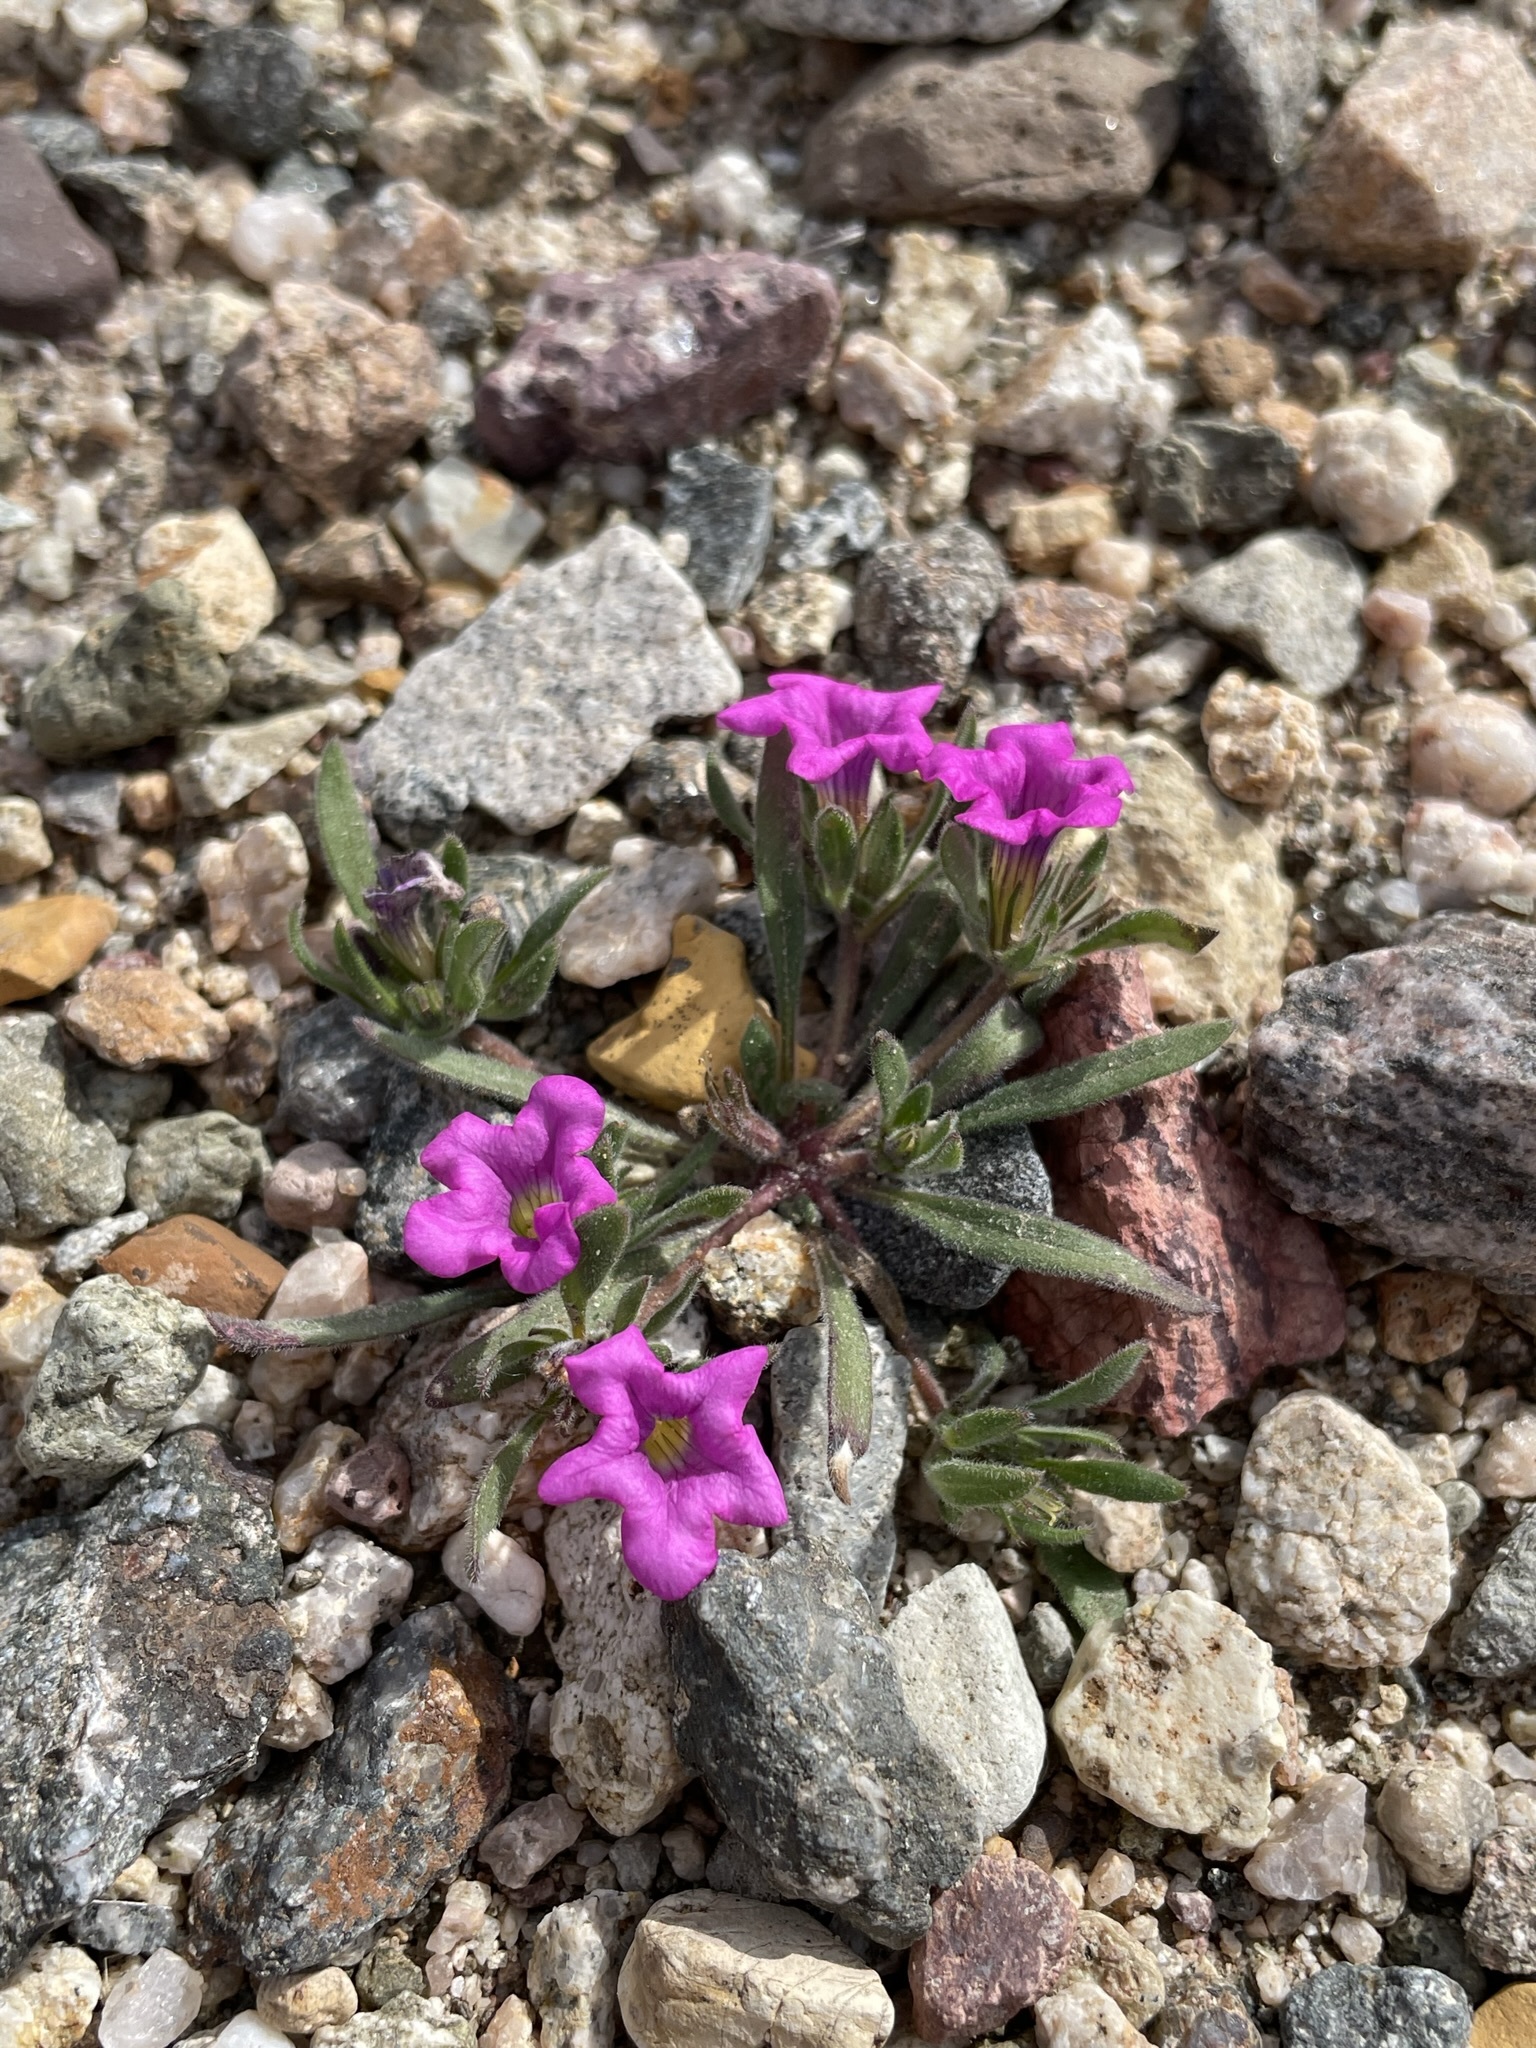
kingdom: Plantae
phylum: Tracheophyta
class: Magnoliopsida
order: Boraginales
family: Namaceae
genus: Nama
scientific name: Nama demissa
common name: Leafy nama
